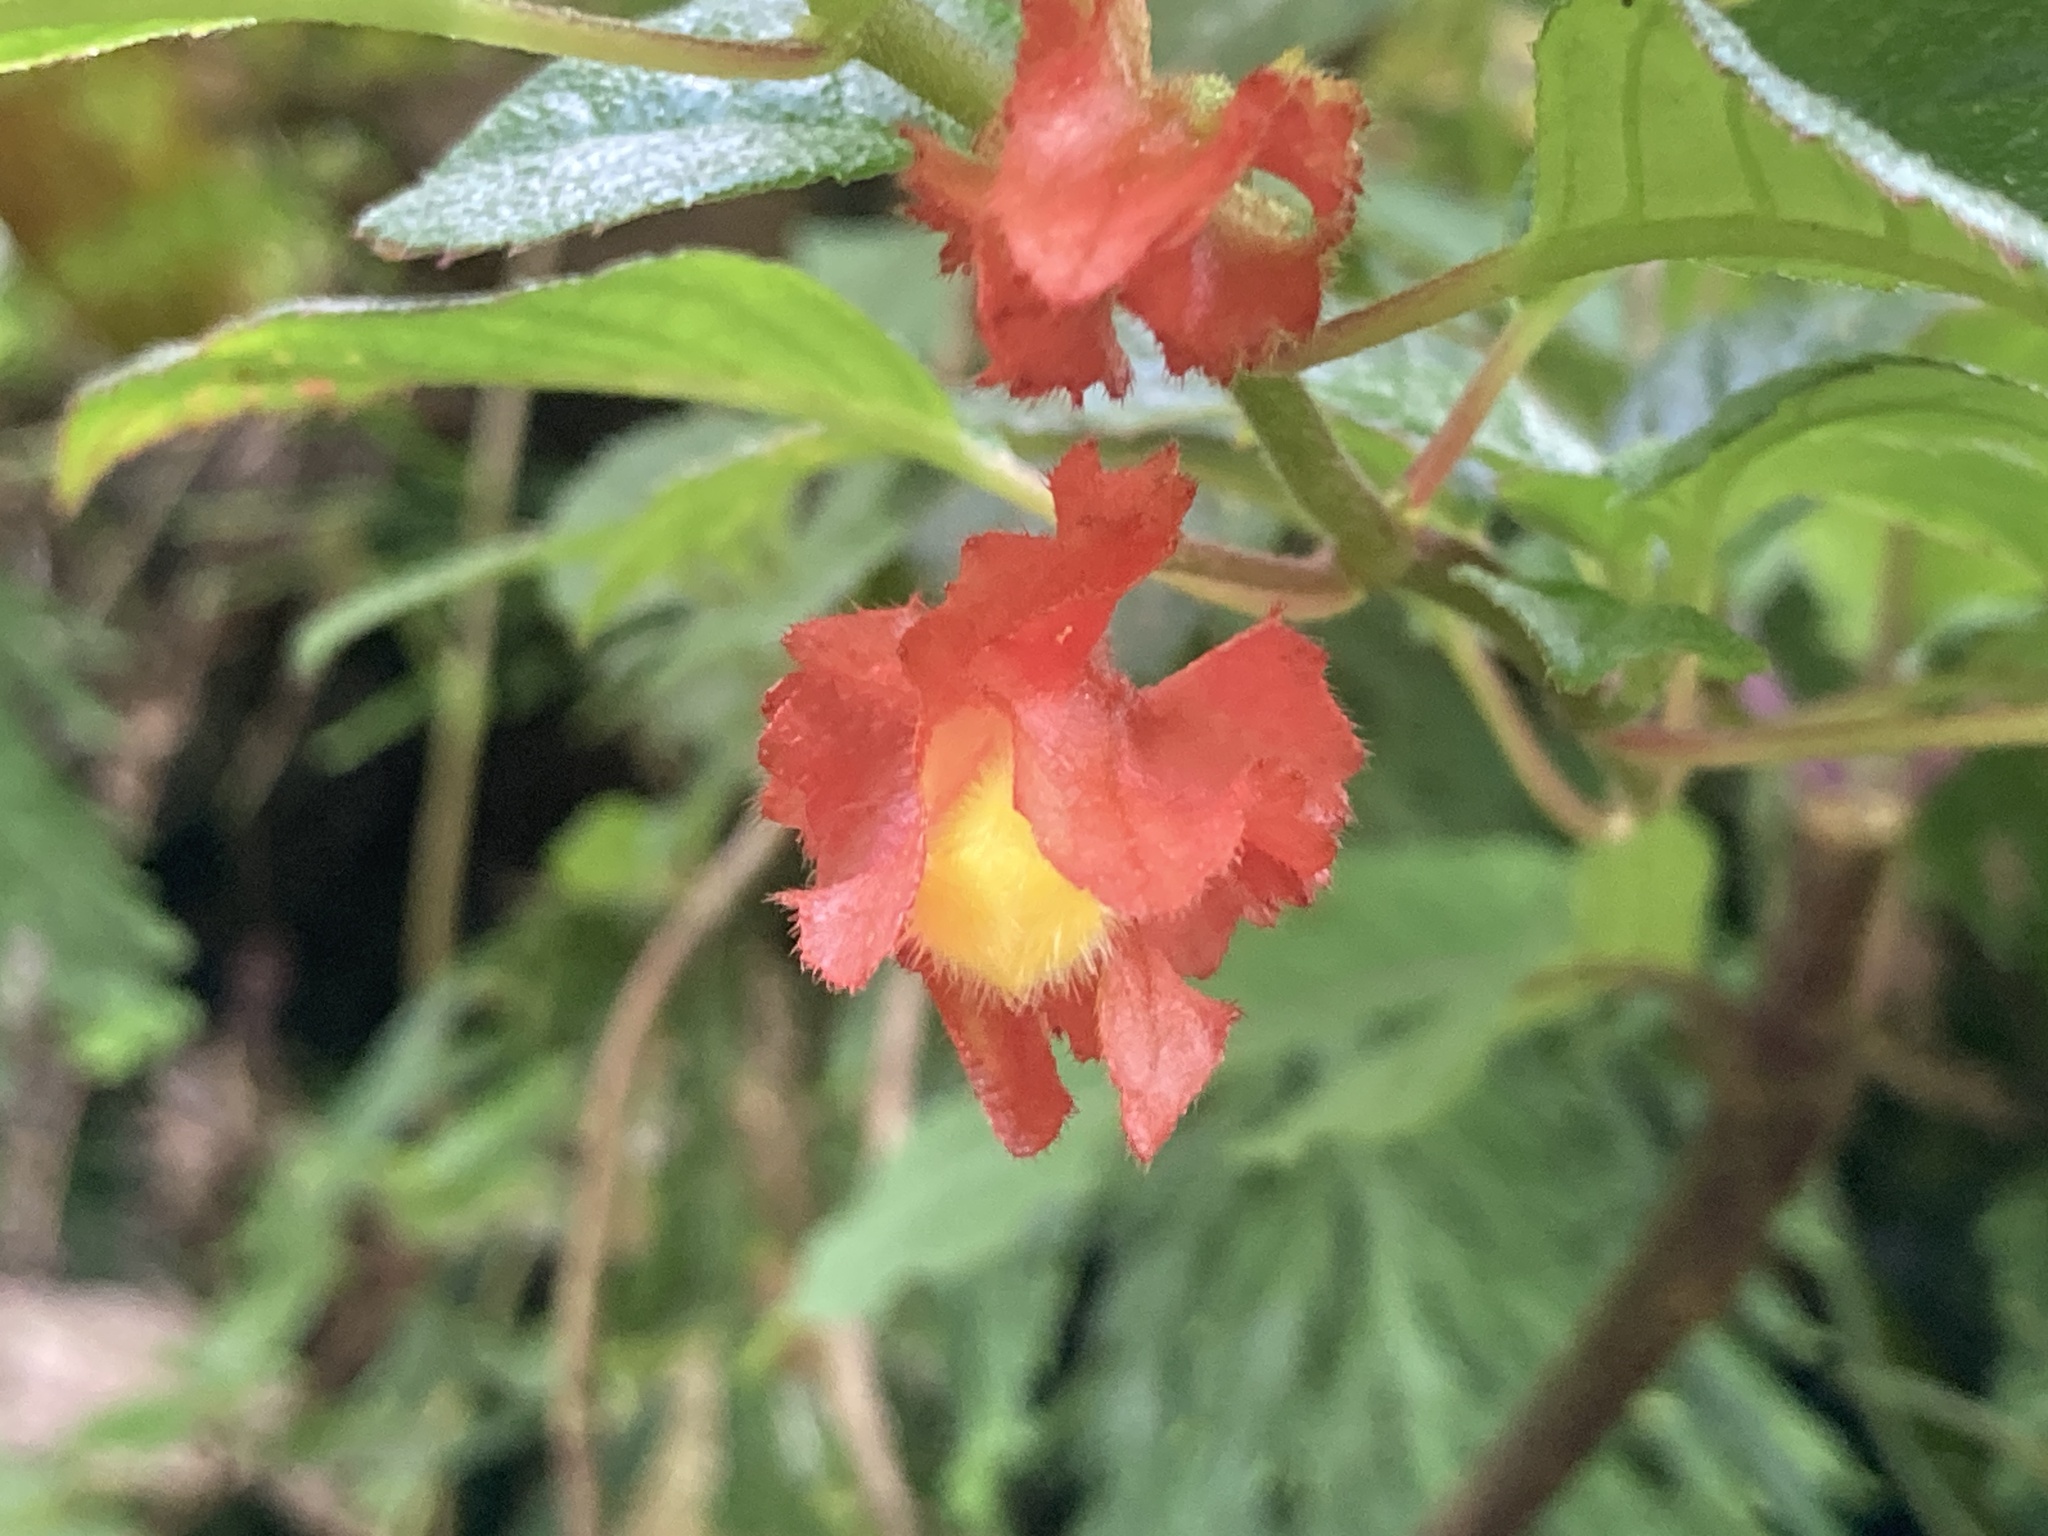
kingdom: Plantae
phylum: Tracheophyta
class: Magnoliopsida
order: Lamiales
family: Gesneriaceae
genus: Crantzia
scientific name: Crantzia cristata
